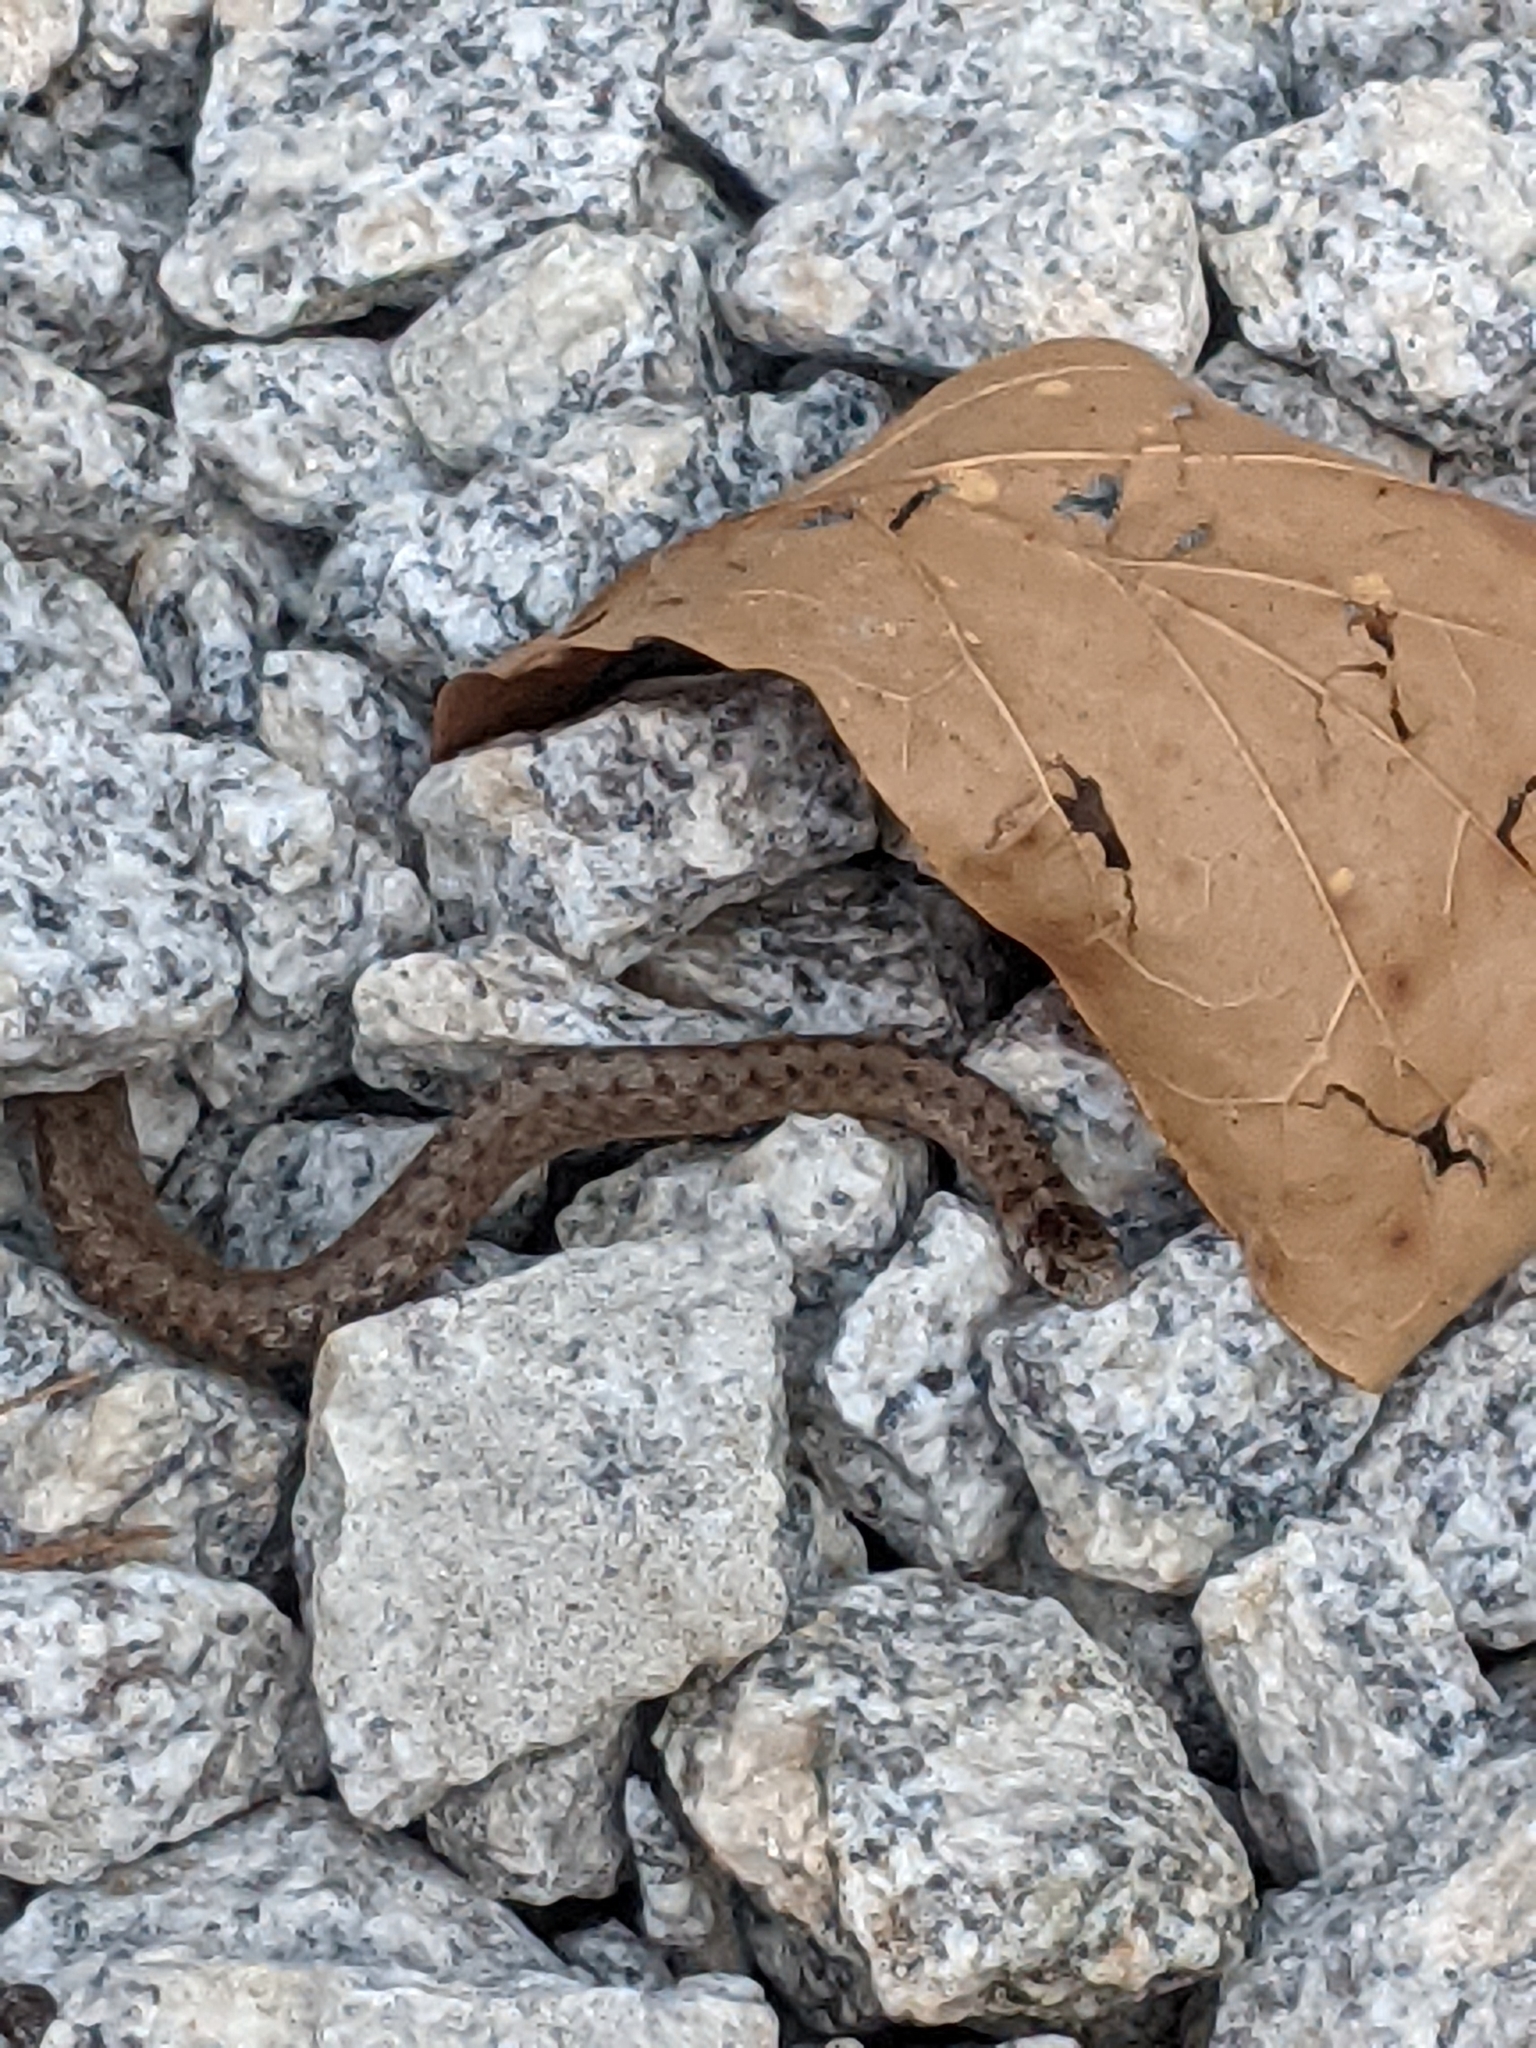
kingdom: Animalia
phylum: Chordata
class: Squamata
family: Colubridae
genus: Storeria
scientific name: Storeria dekayi
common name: (dekay’s) brown snake
